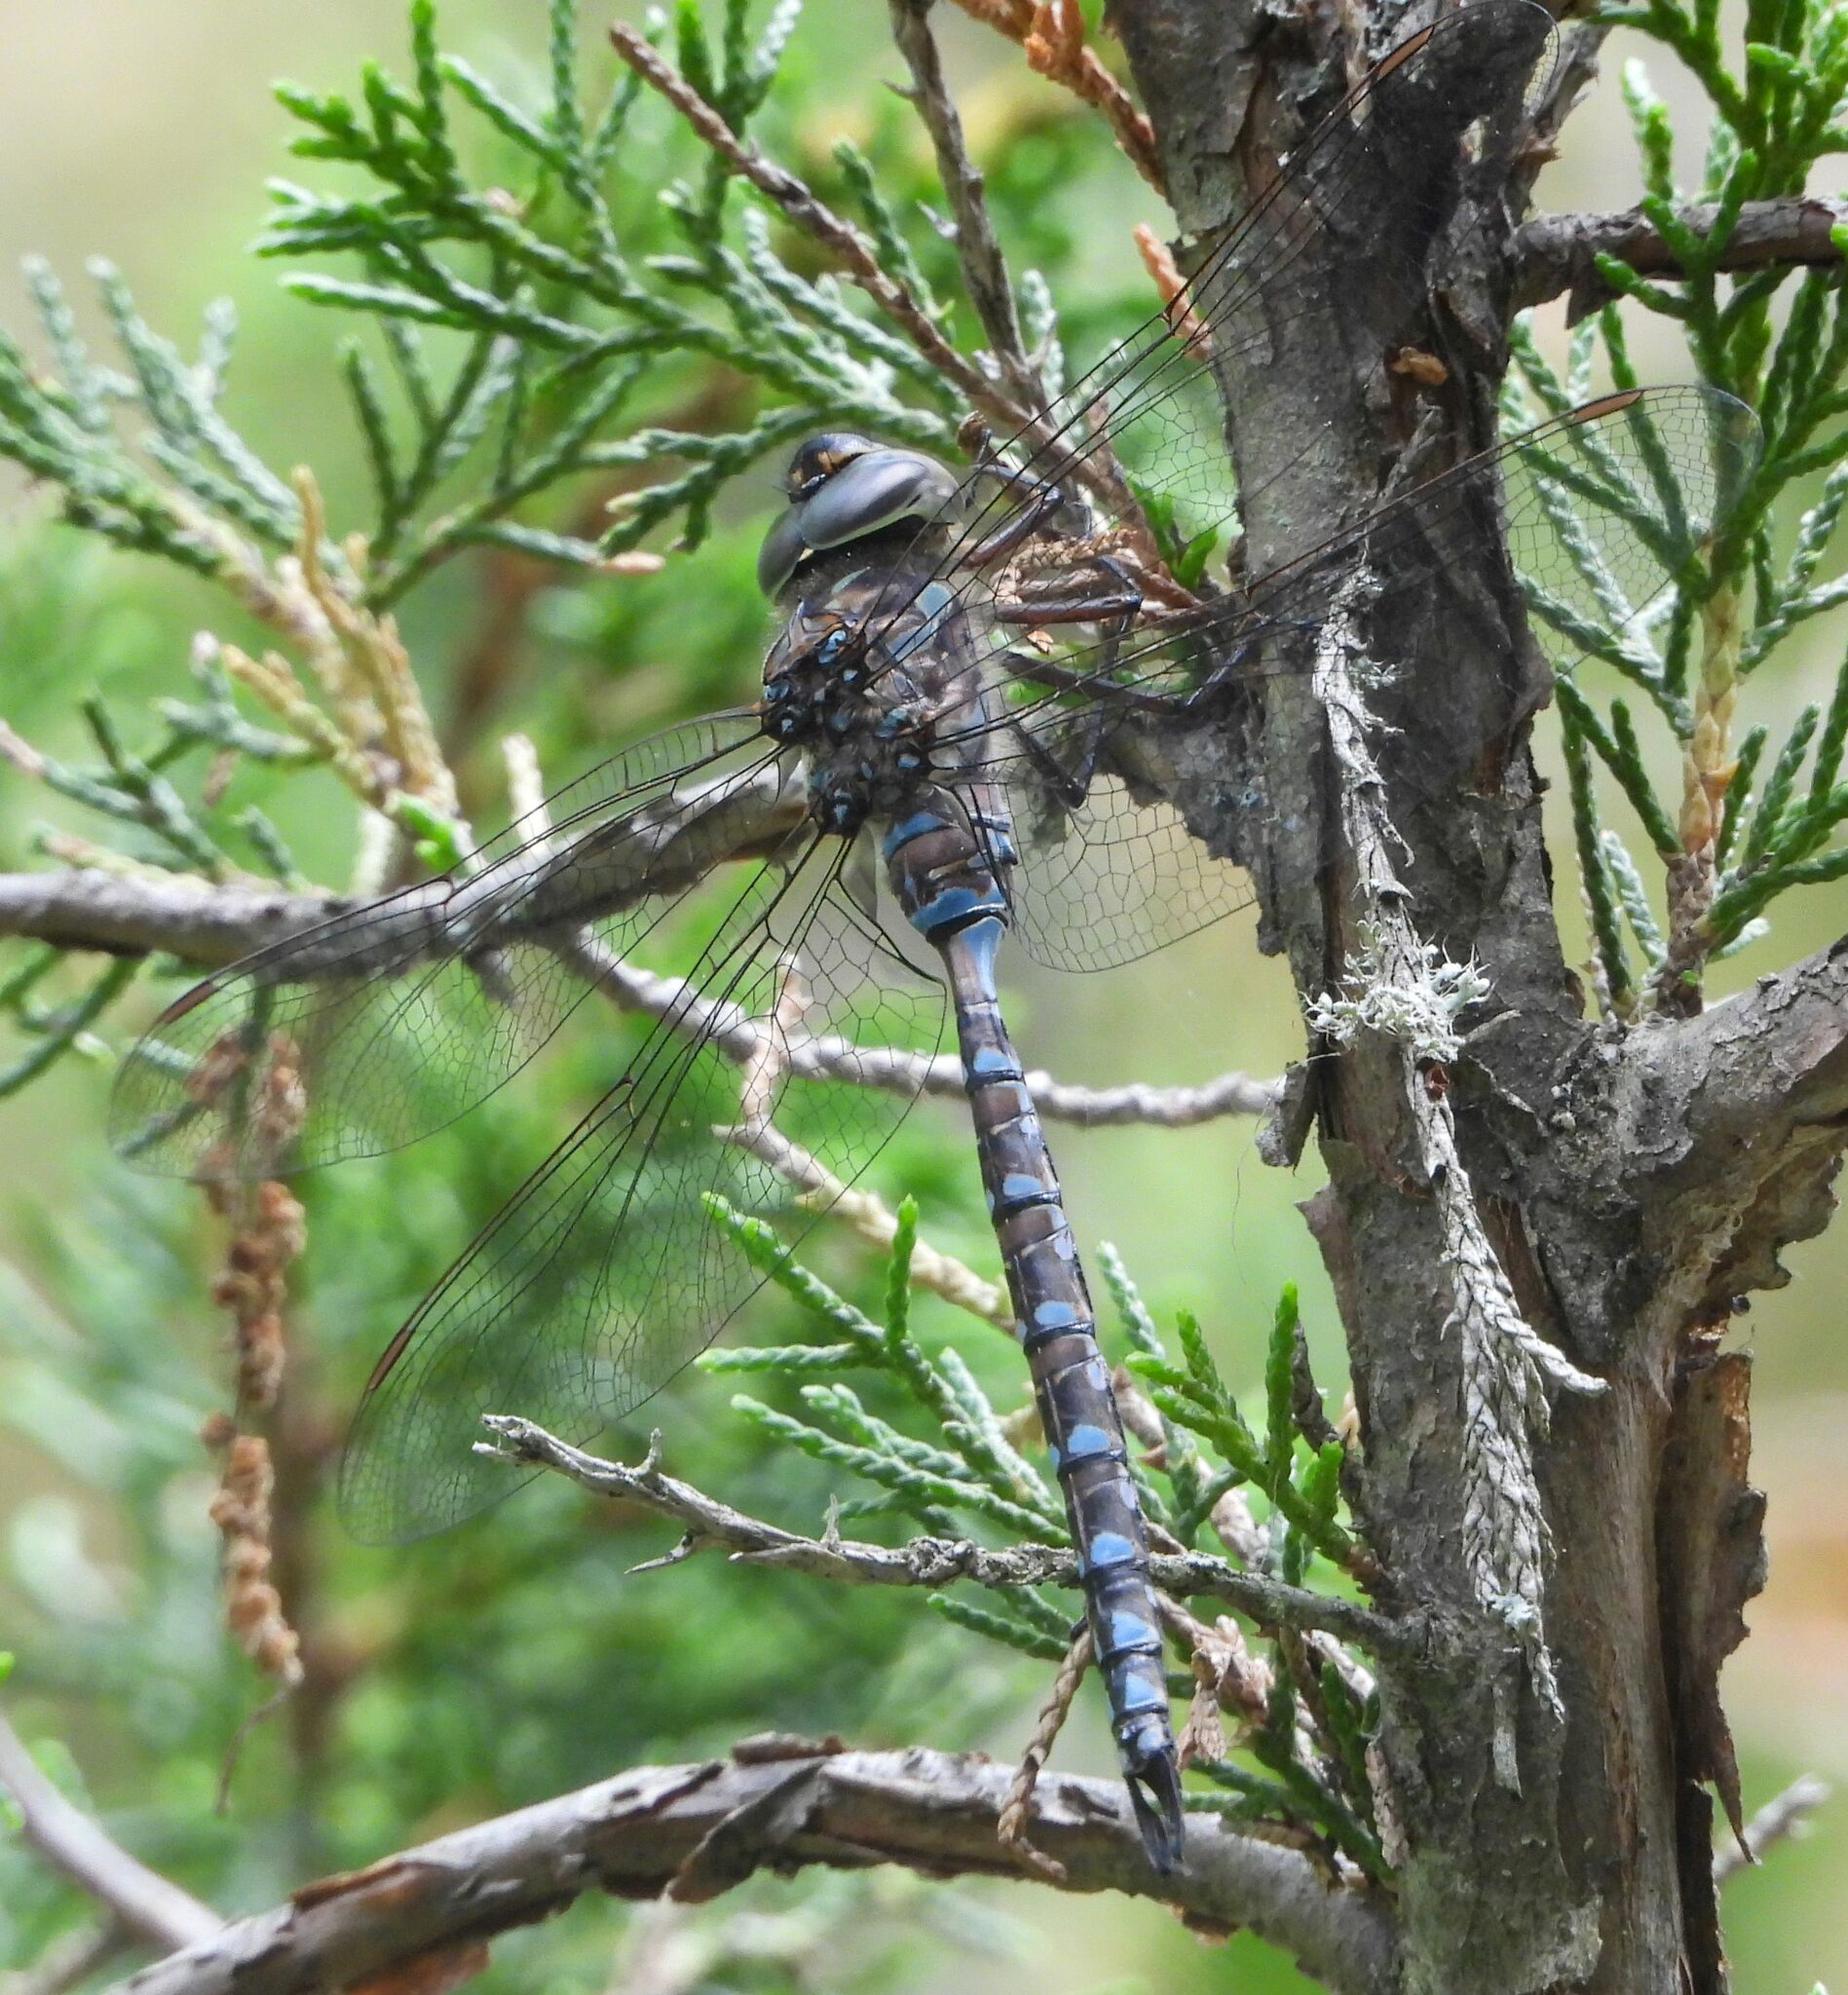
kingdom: Animalia
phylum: Arthropoda
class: Insecta
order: Odonata
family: Aeshnidae
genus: Aeshna
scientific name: Aeshna canadensis
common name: Canada darner
